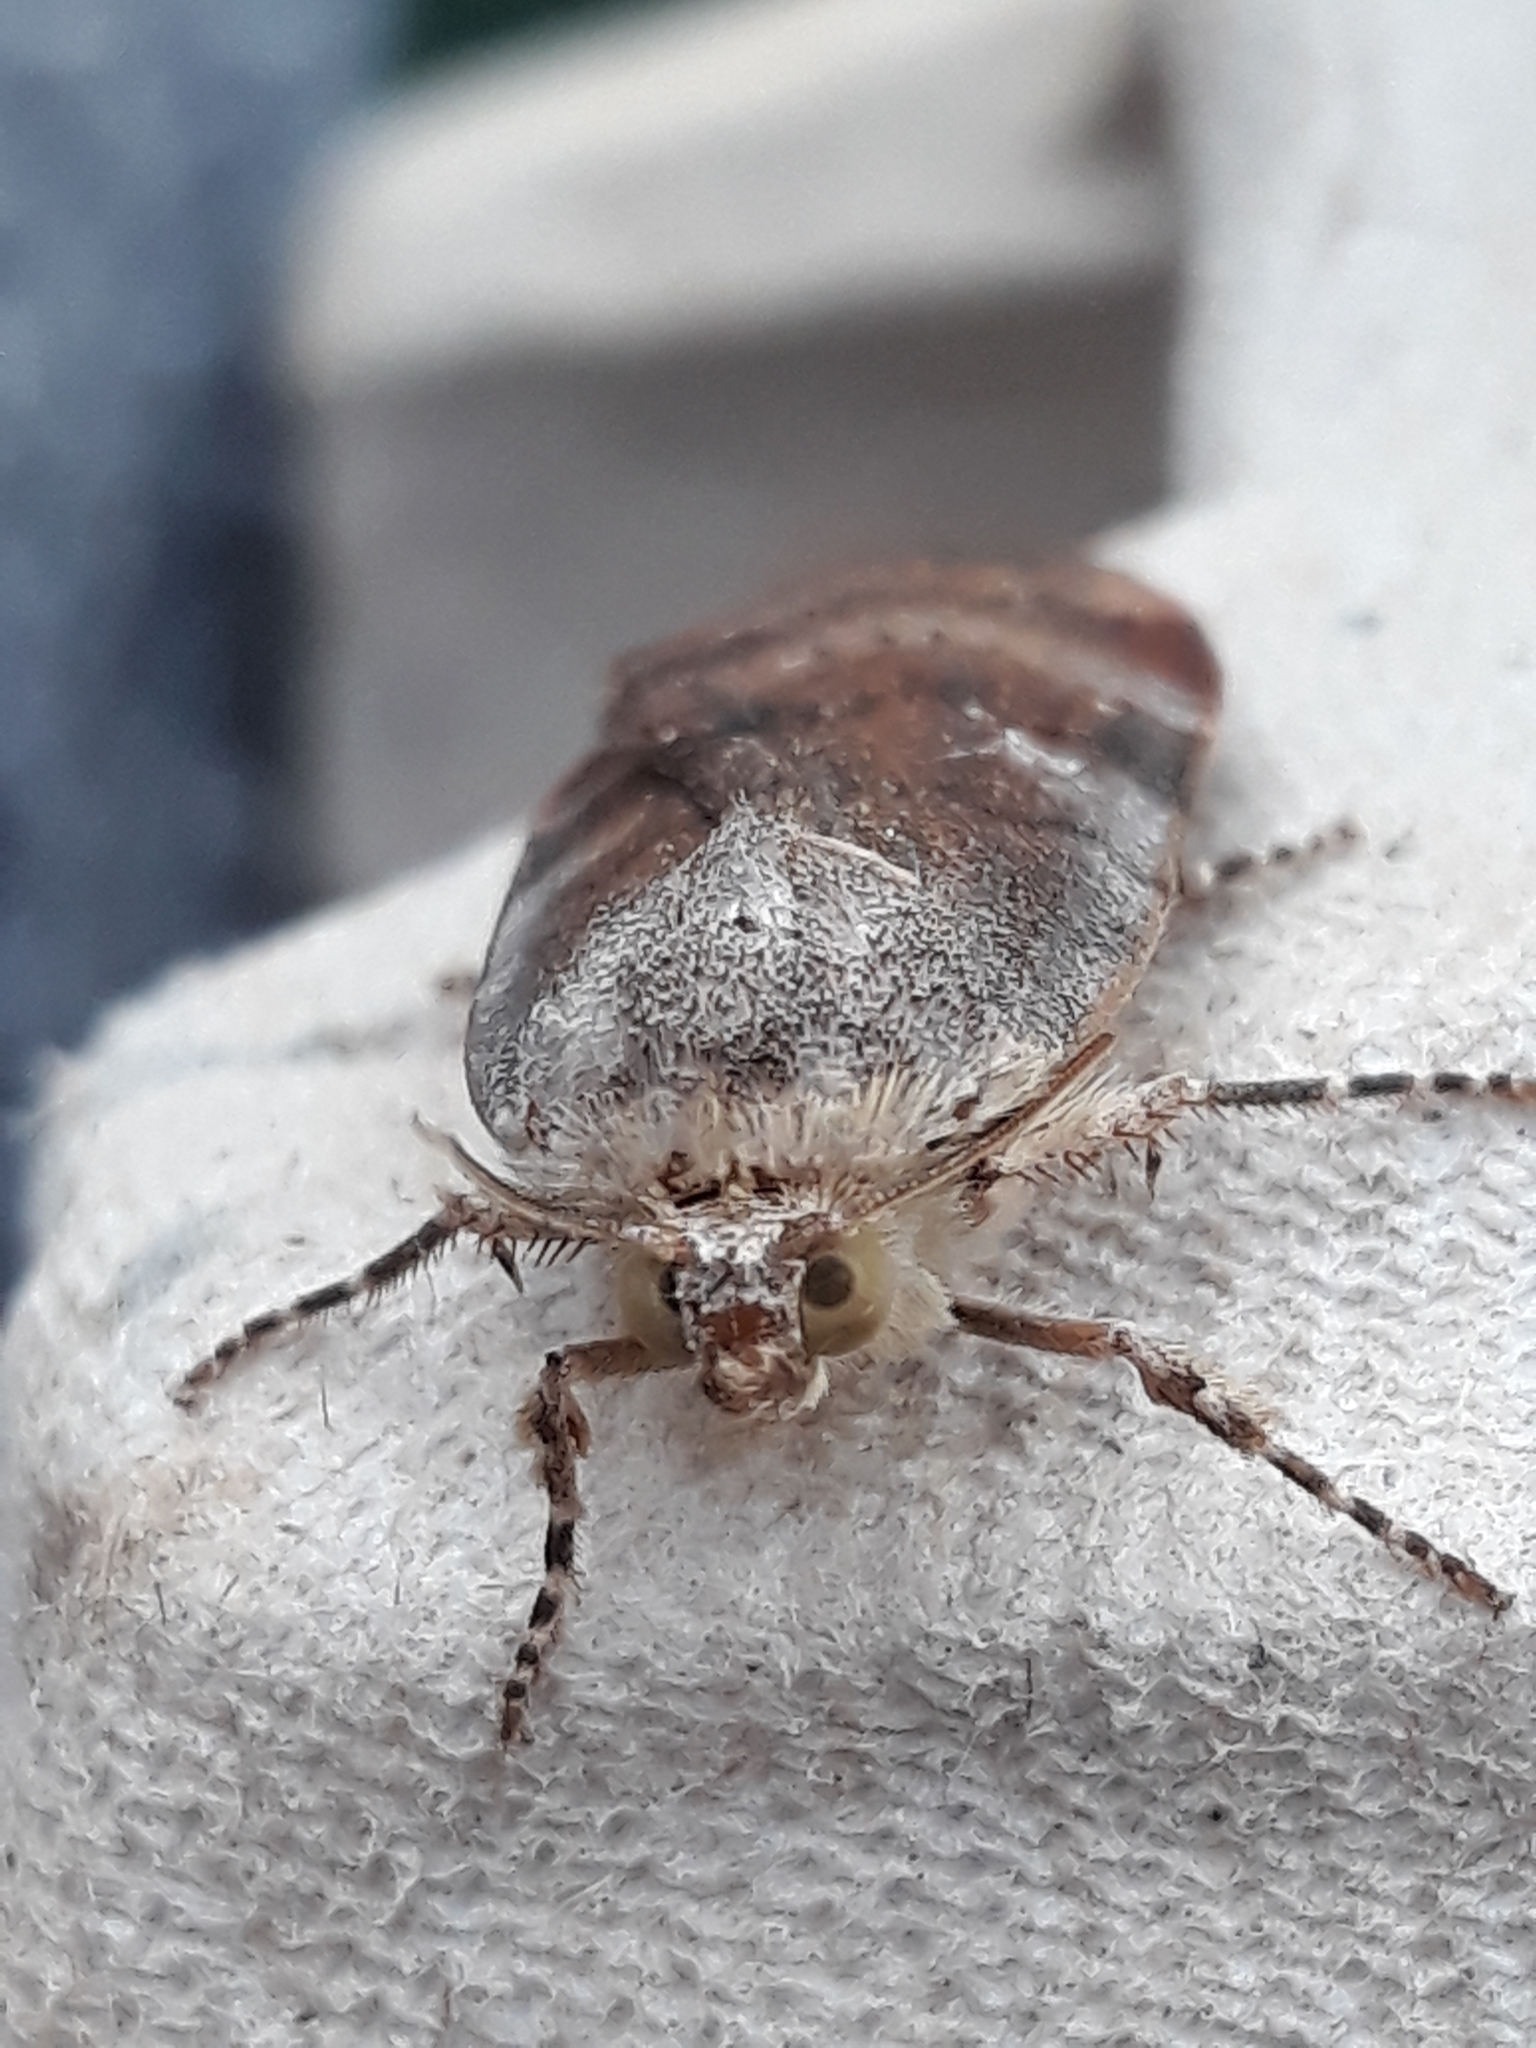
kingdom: Animalia
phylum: Arthropoda
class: Insecta
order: Lepidoptera
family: Noctuidae
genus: Noctua
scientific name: Noctua janthe
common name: Lesser broad-bordered yellow underwing
